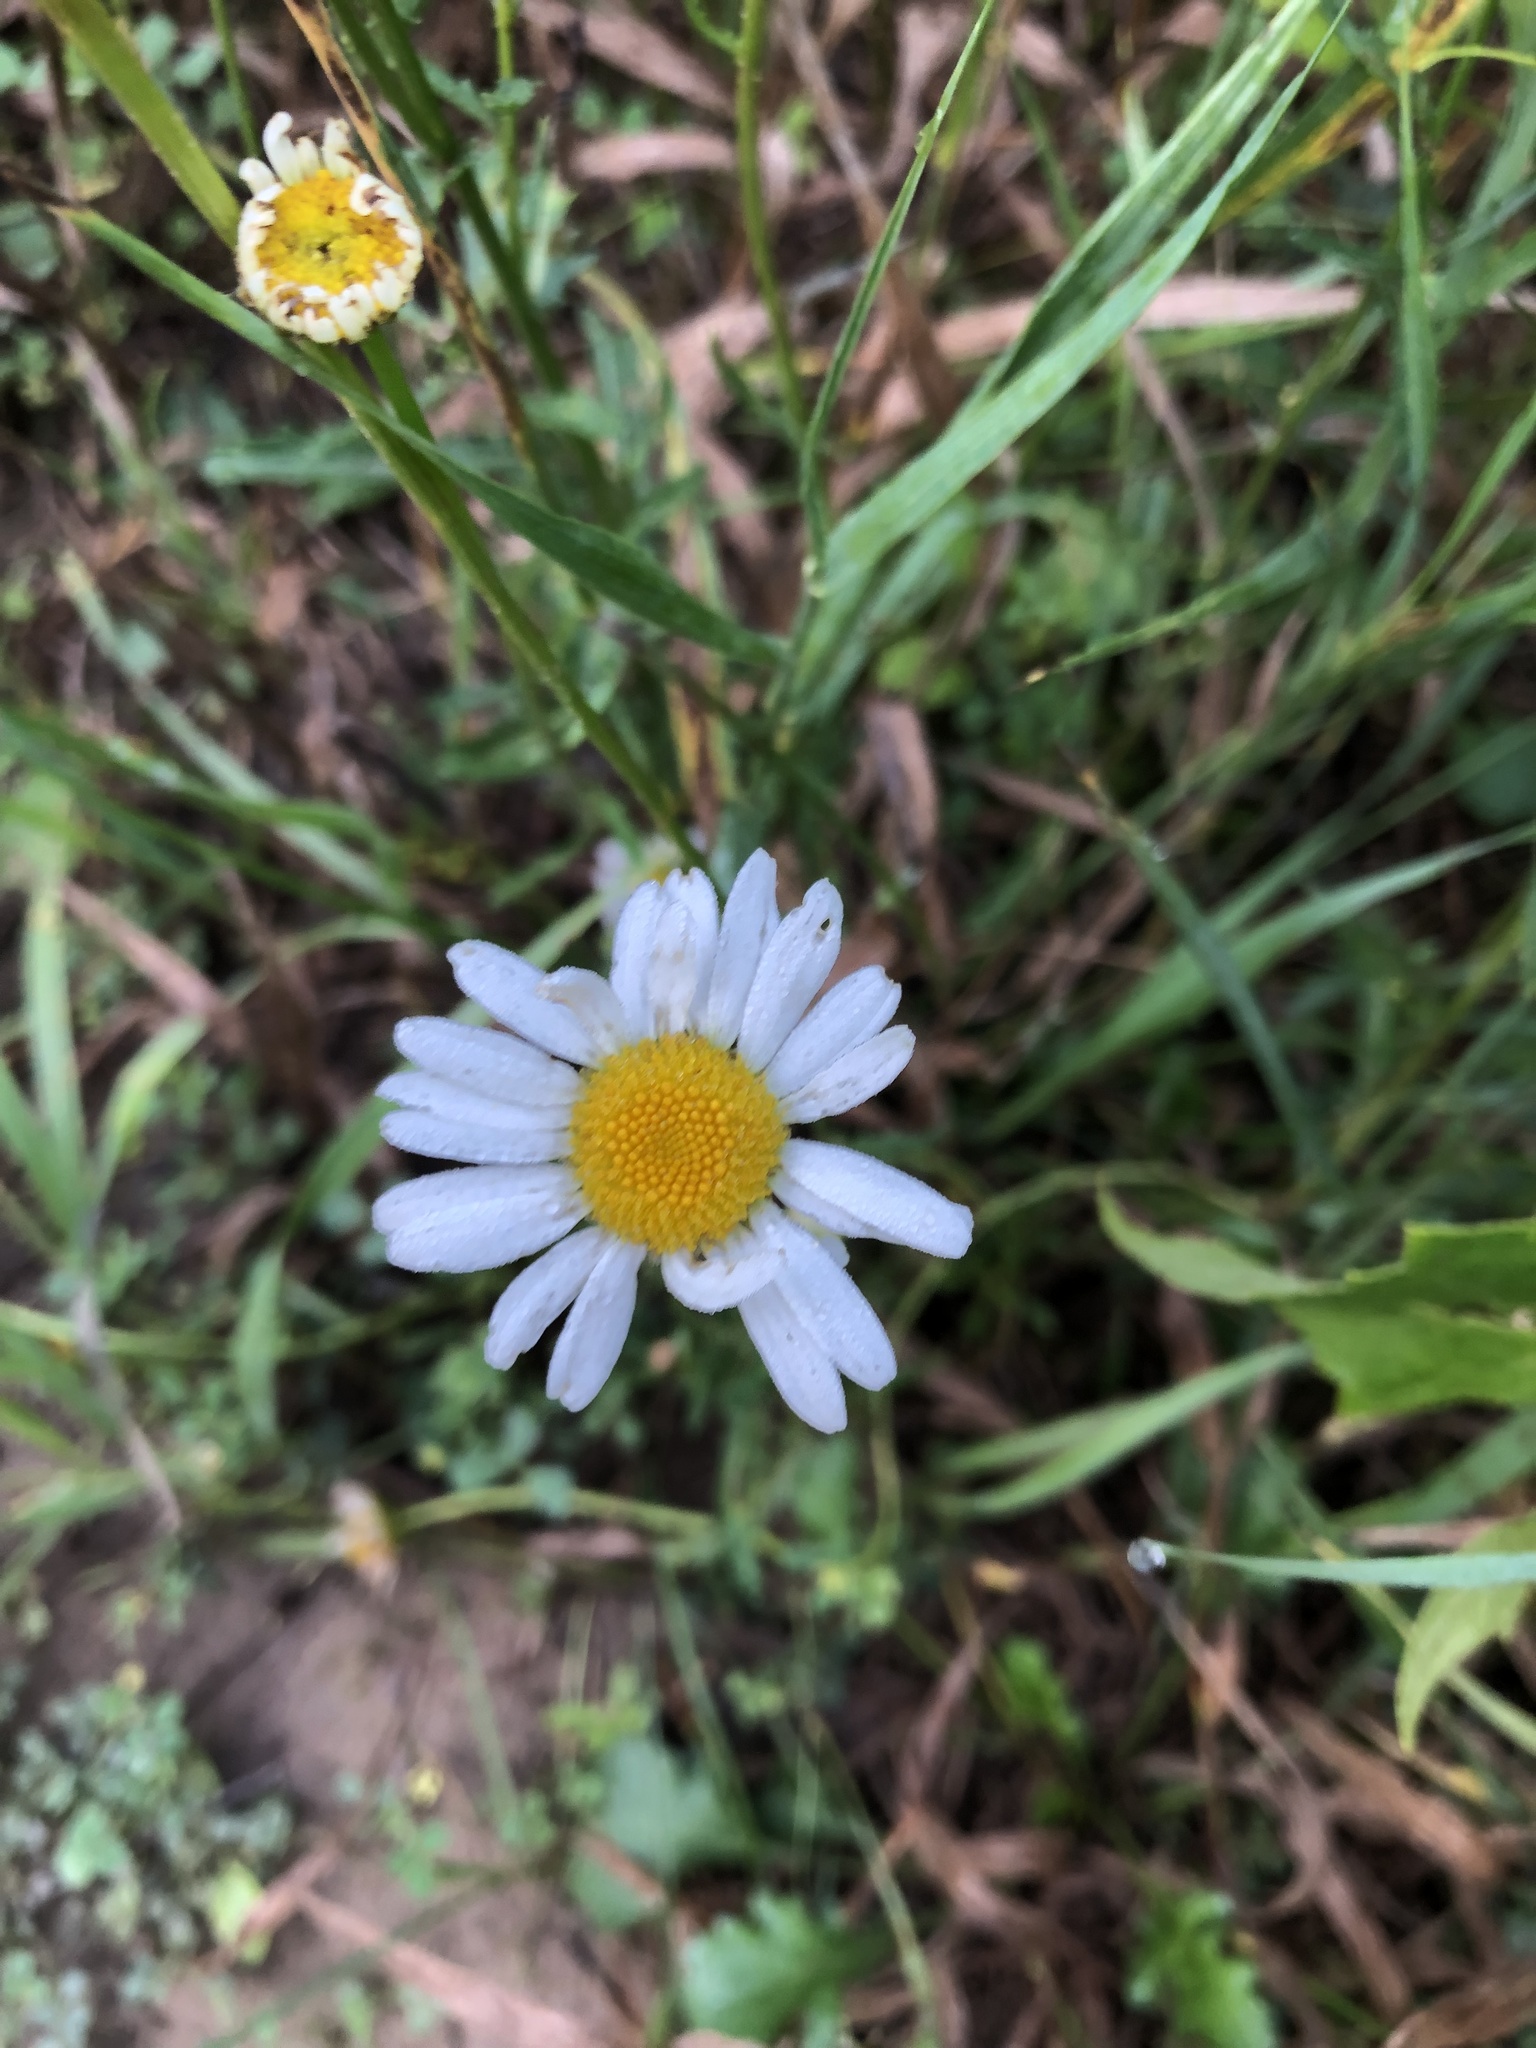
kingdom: Plantae
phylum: Tracheophyta
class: Magnoliopsida
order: Asterales
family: Asteraceae
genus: Leucanthemum
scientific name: Leucanthemum vulgare
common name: Oxeye daisy
